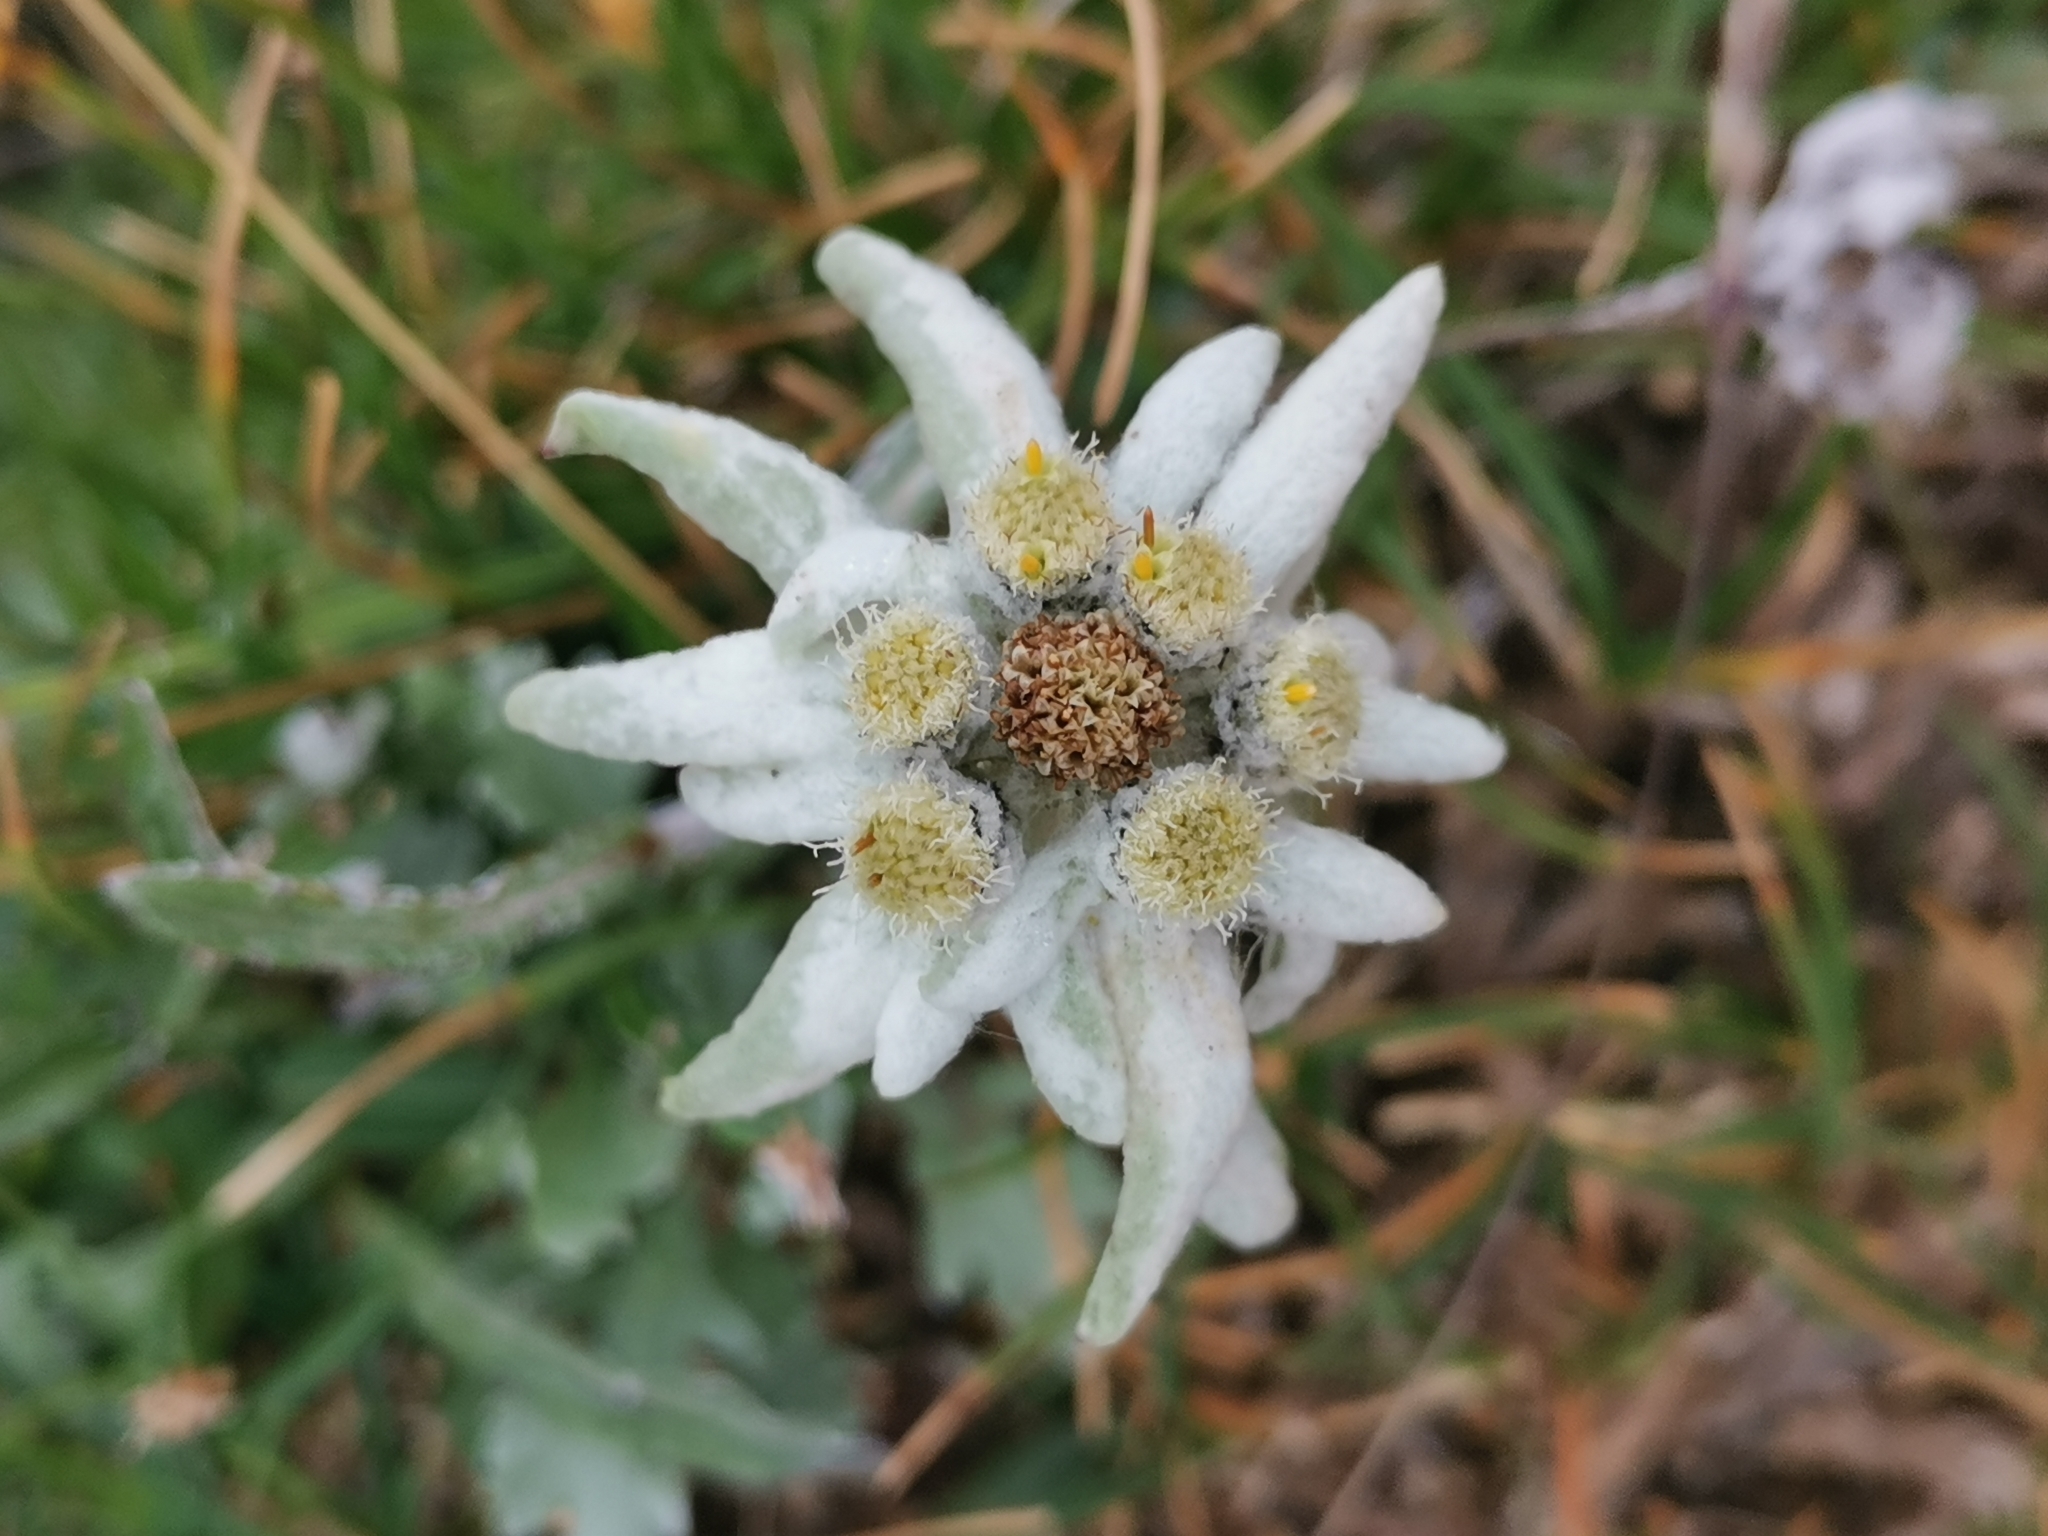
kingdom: Plantae
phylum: Tracheophyta
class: Magnoliopsida
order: Asterales
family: Asteraceae
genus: Leontopodium
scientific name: Leontopodium nivale
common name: Edelweiss
